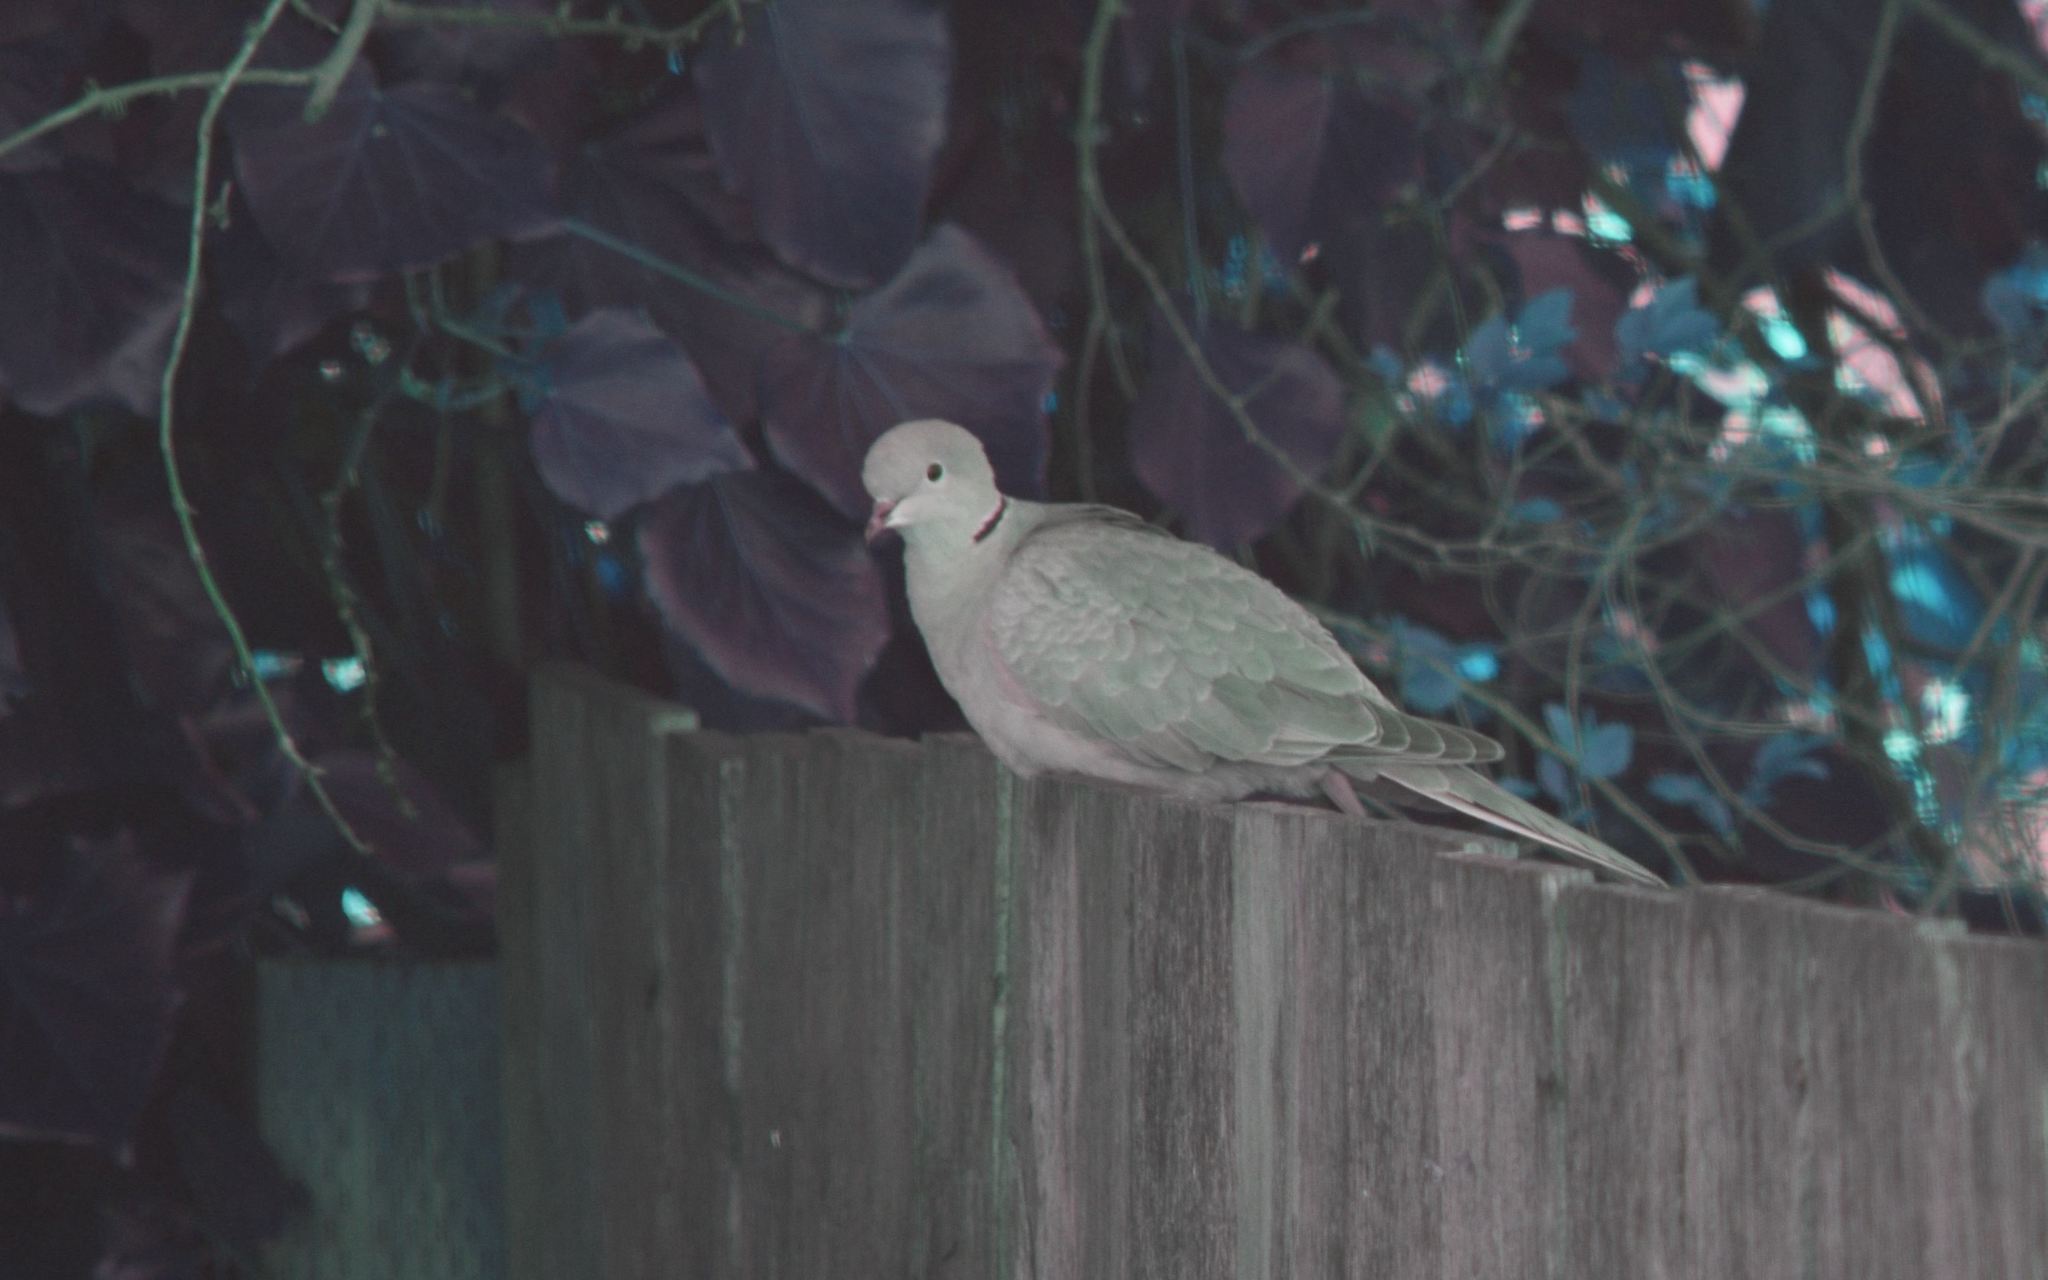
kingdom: Animalia
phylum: Chordata
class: Aves
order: Columbiformes
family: Columbidae
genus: Streptopelia
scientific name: Streptopelia decaocto
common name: Eurasian collared dove
